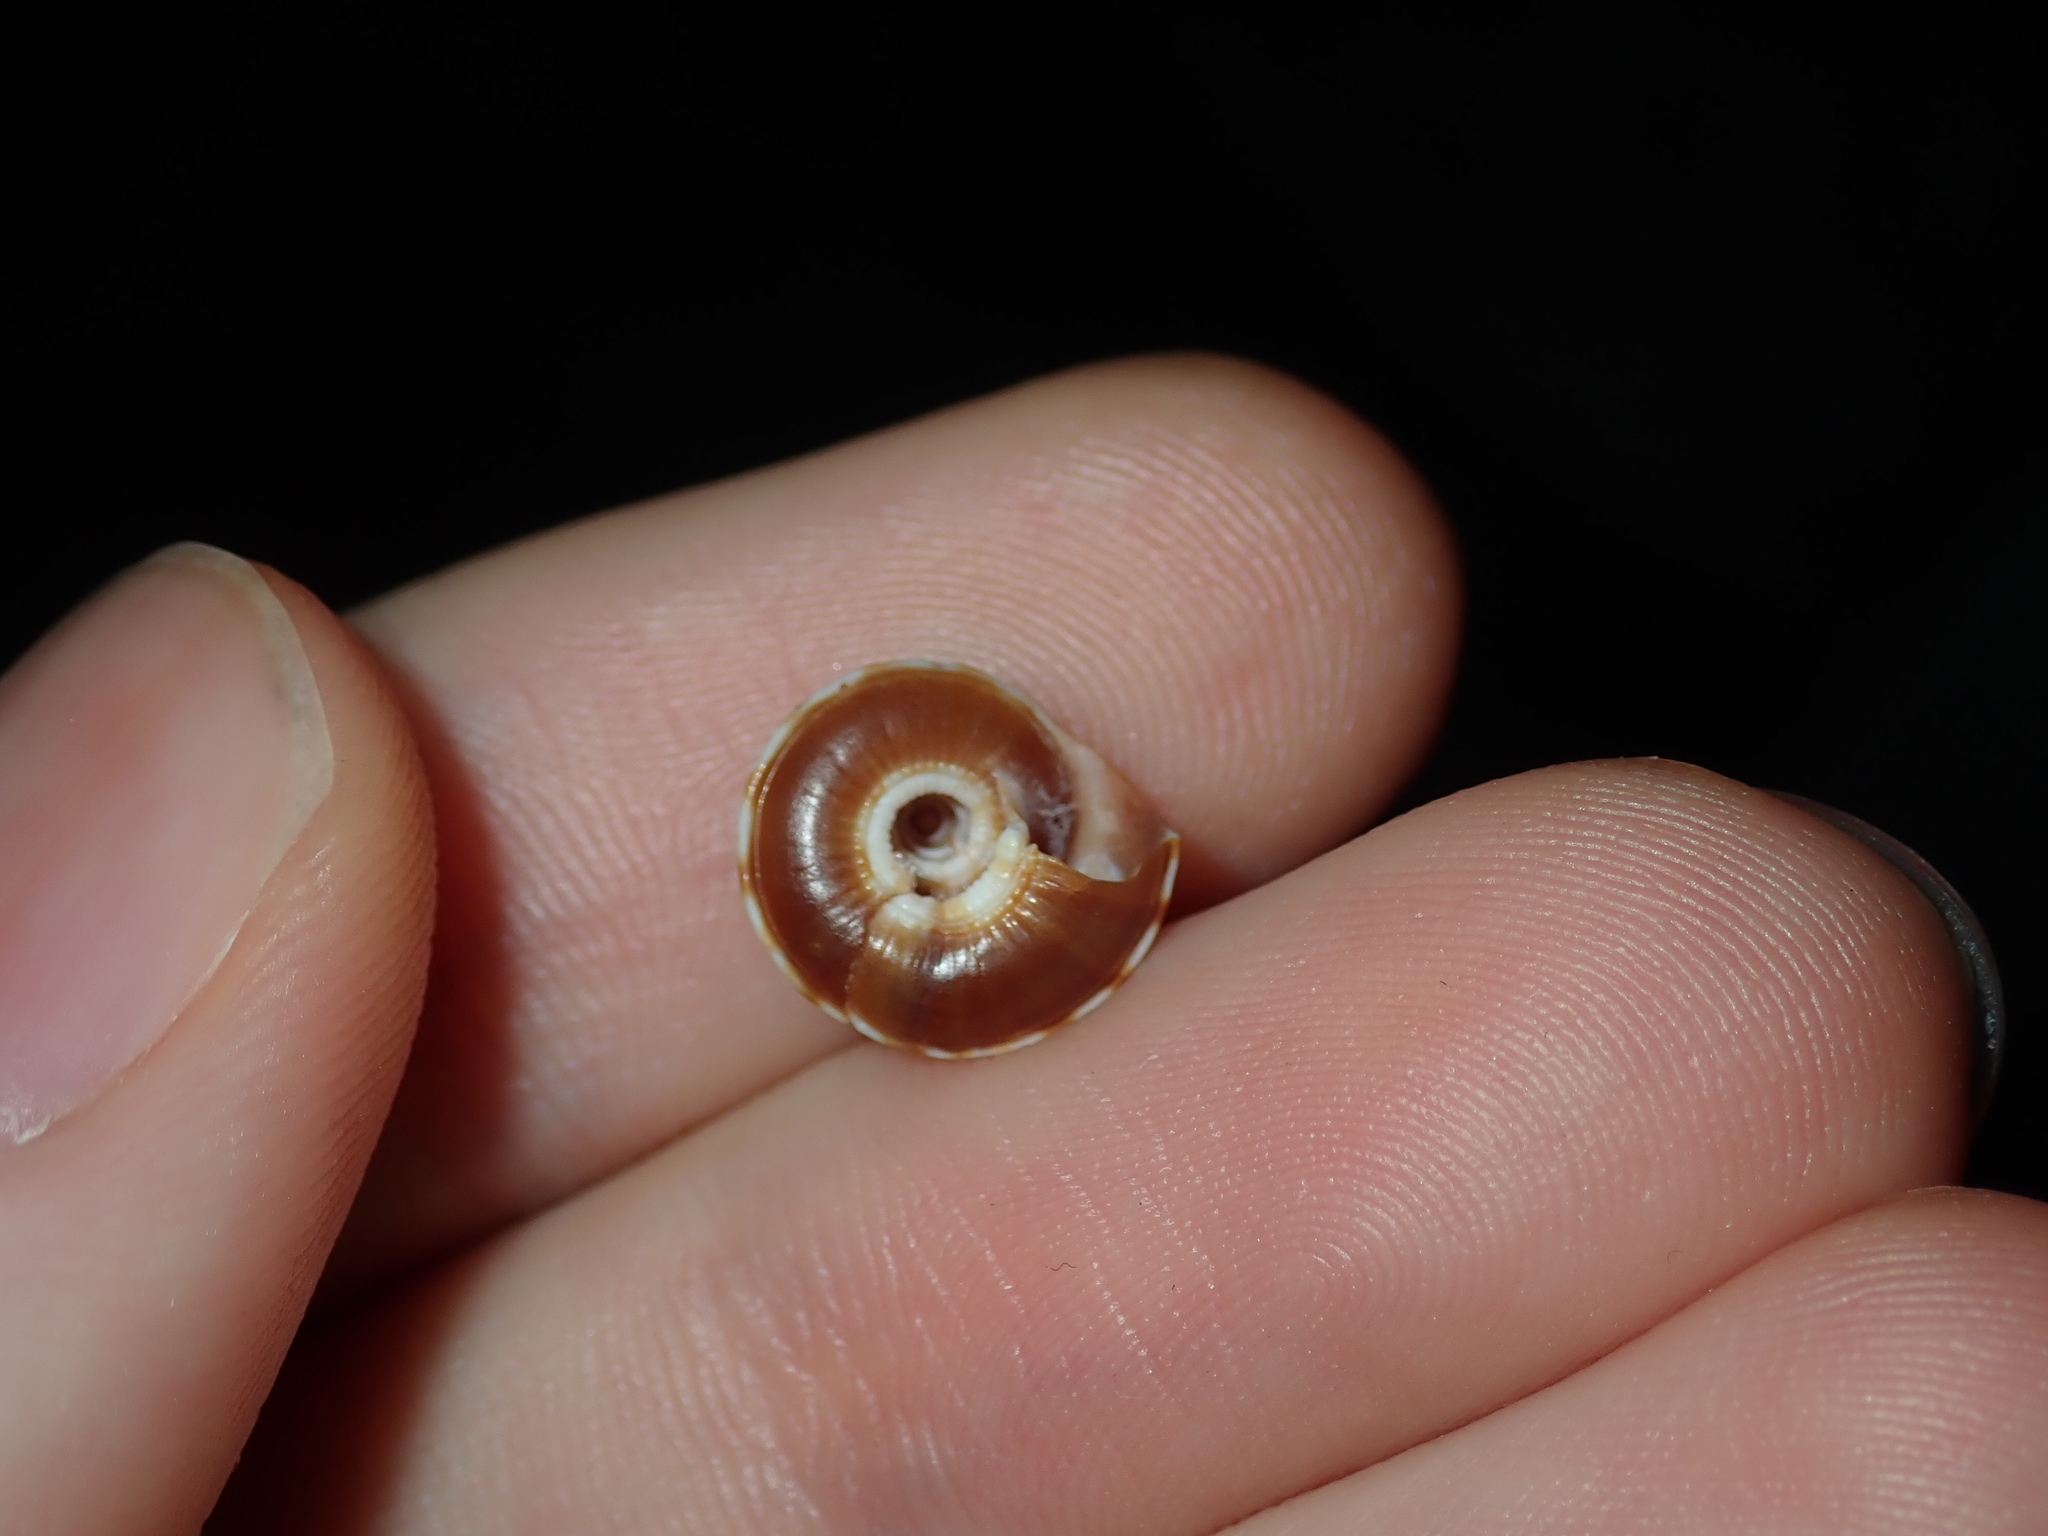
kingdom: Animalia
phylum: Mollusca
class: Gastropoda
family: Architectonicidae
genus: Psilaxis
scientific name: Psilaxis oxytropis
